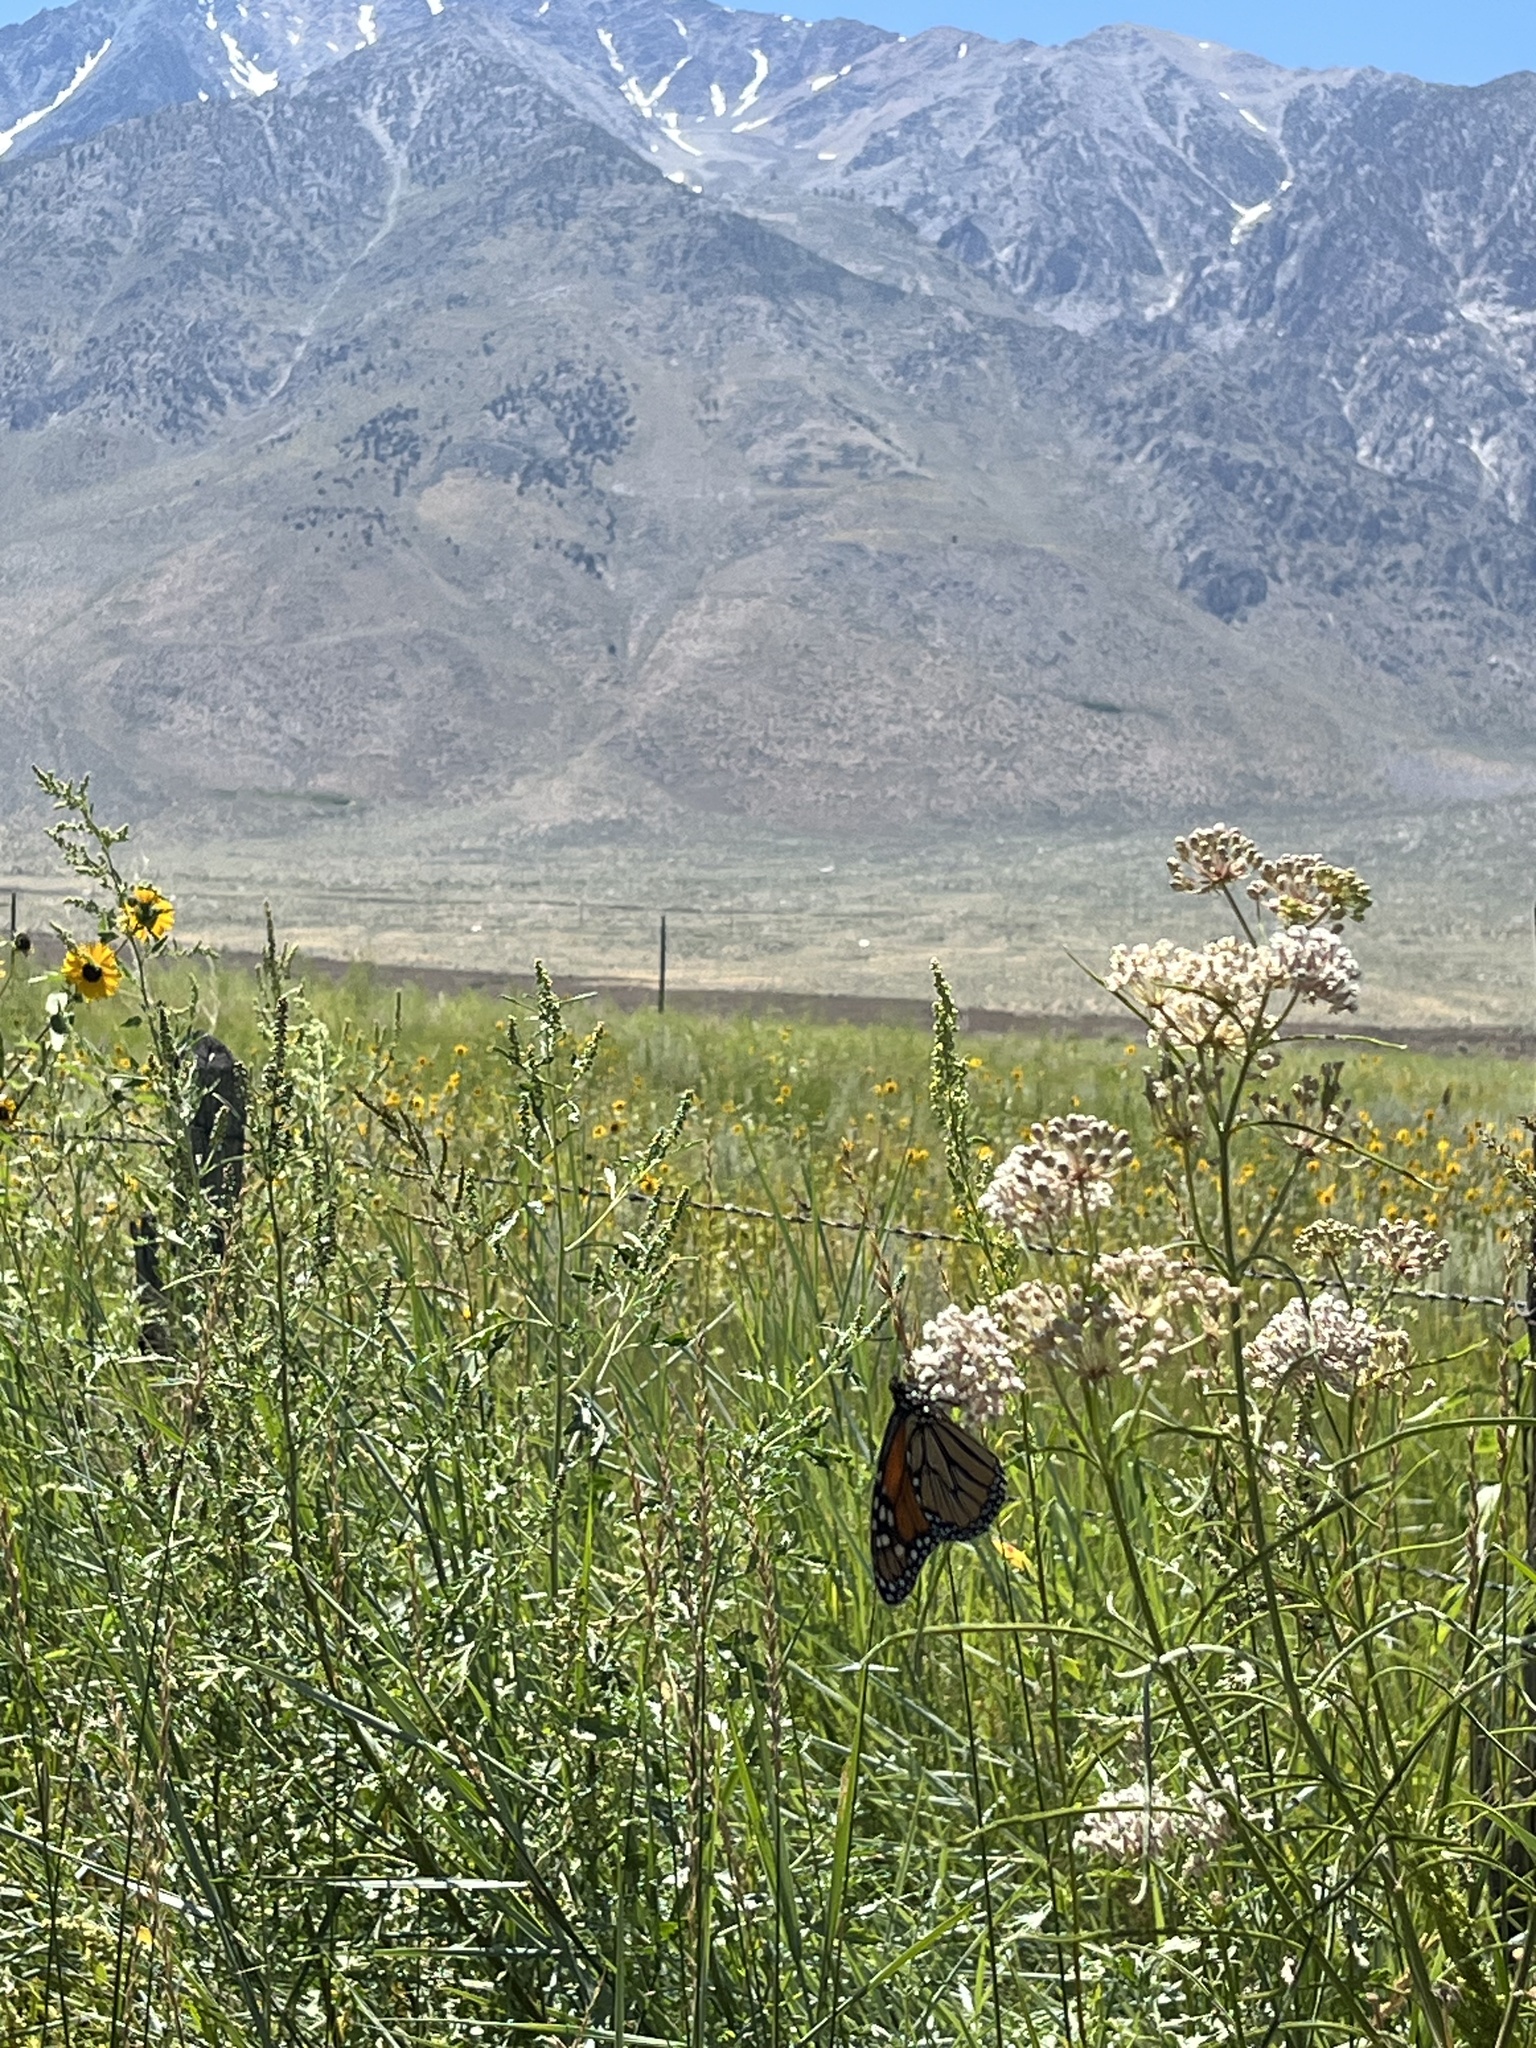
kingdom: Animalia
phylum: Arthropoda
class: Insecta
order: Lepidoptera
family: Nymphalidae
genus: Danaus
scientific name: Danaus plexippus
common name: Monarch
